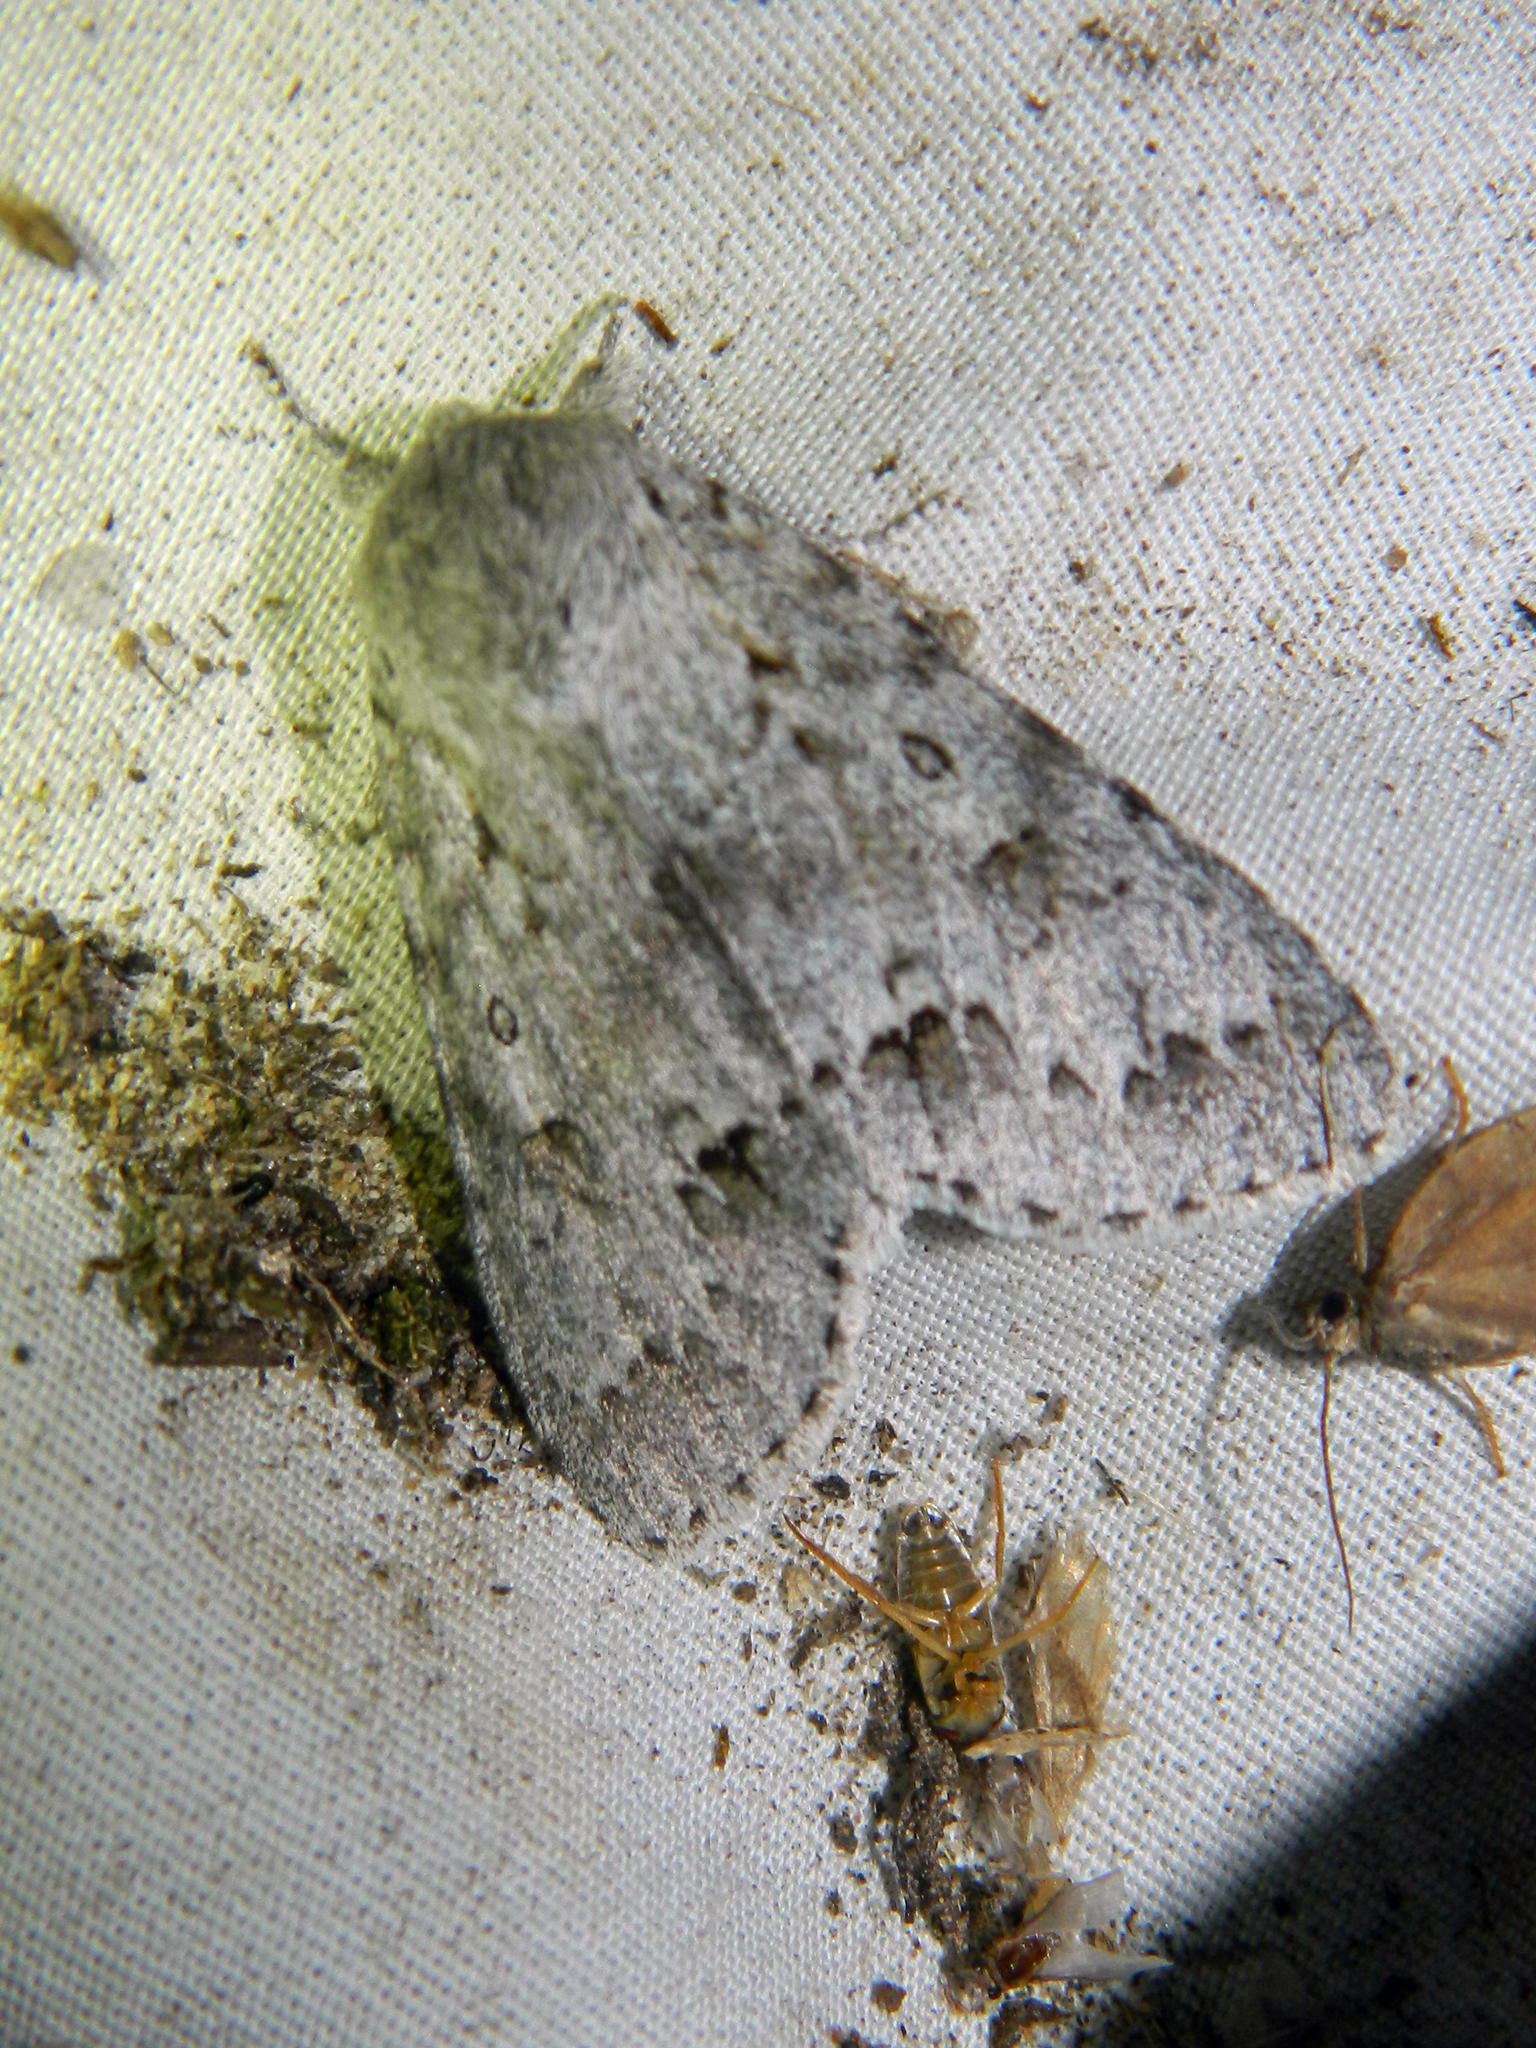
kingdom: Animalia
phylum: Arthropoda
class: Insecta
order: Lepidoptera
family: Noctuidae
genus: Acronicta
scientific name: Acronicta insita
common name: Large gray dagger
